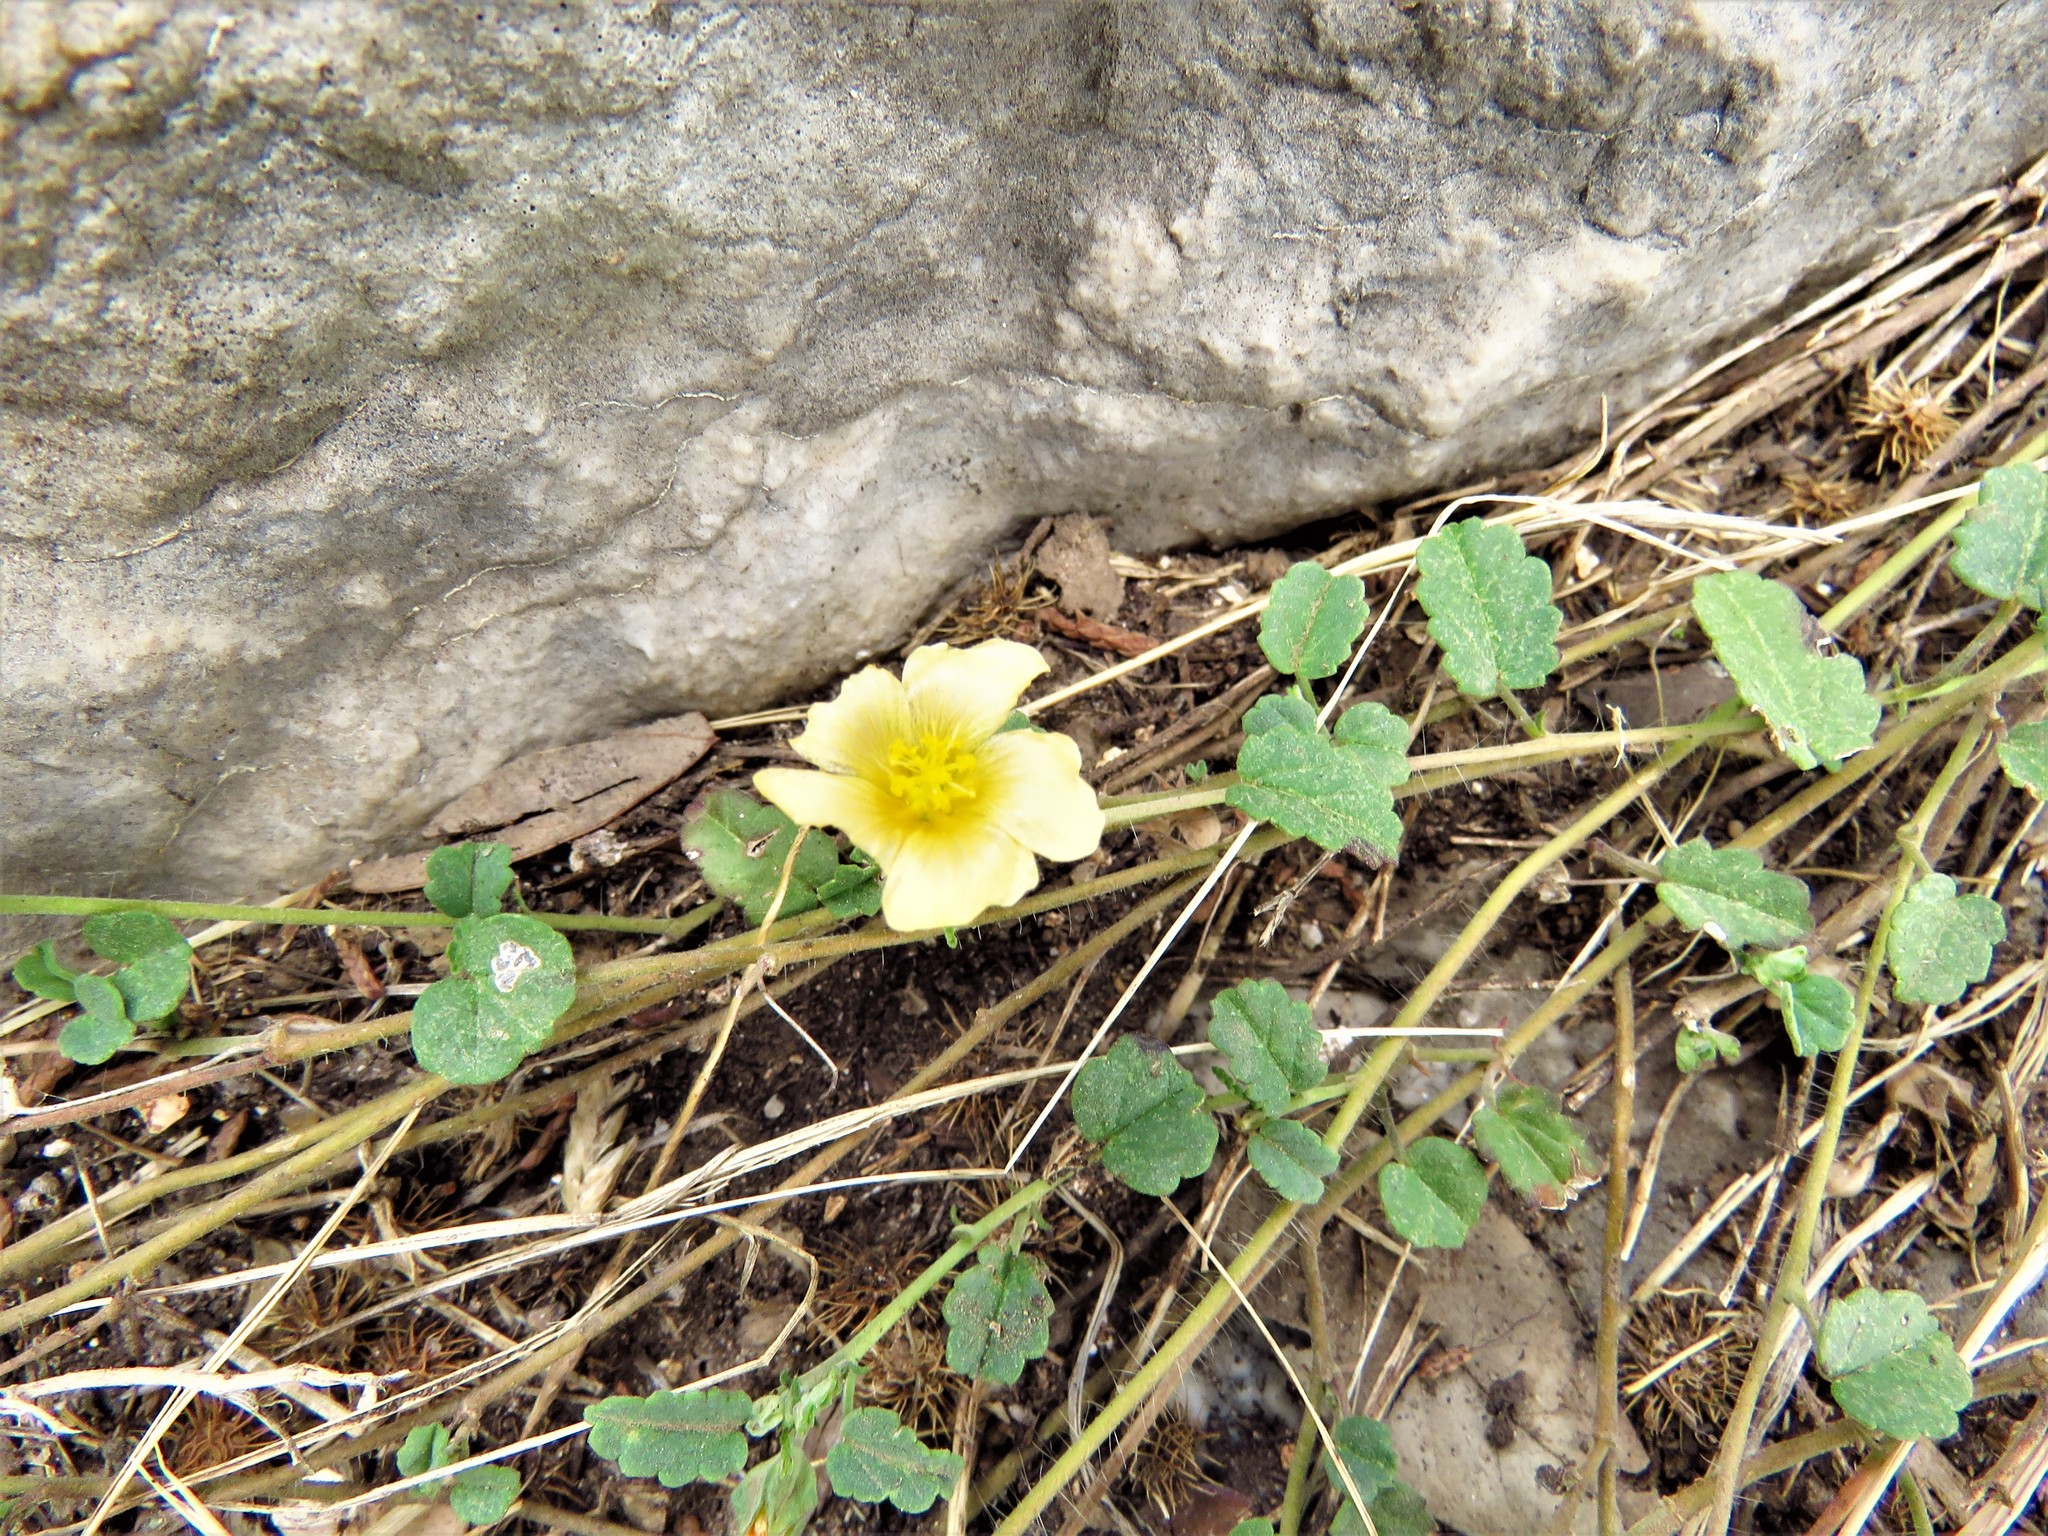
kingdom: Plantae
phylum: Tracheophyta
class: Magnoliopsida
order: Malvales
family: Malvaceae
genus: Sida
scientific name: Sida abutilifolia
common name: Spreading fanpetals
